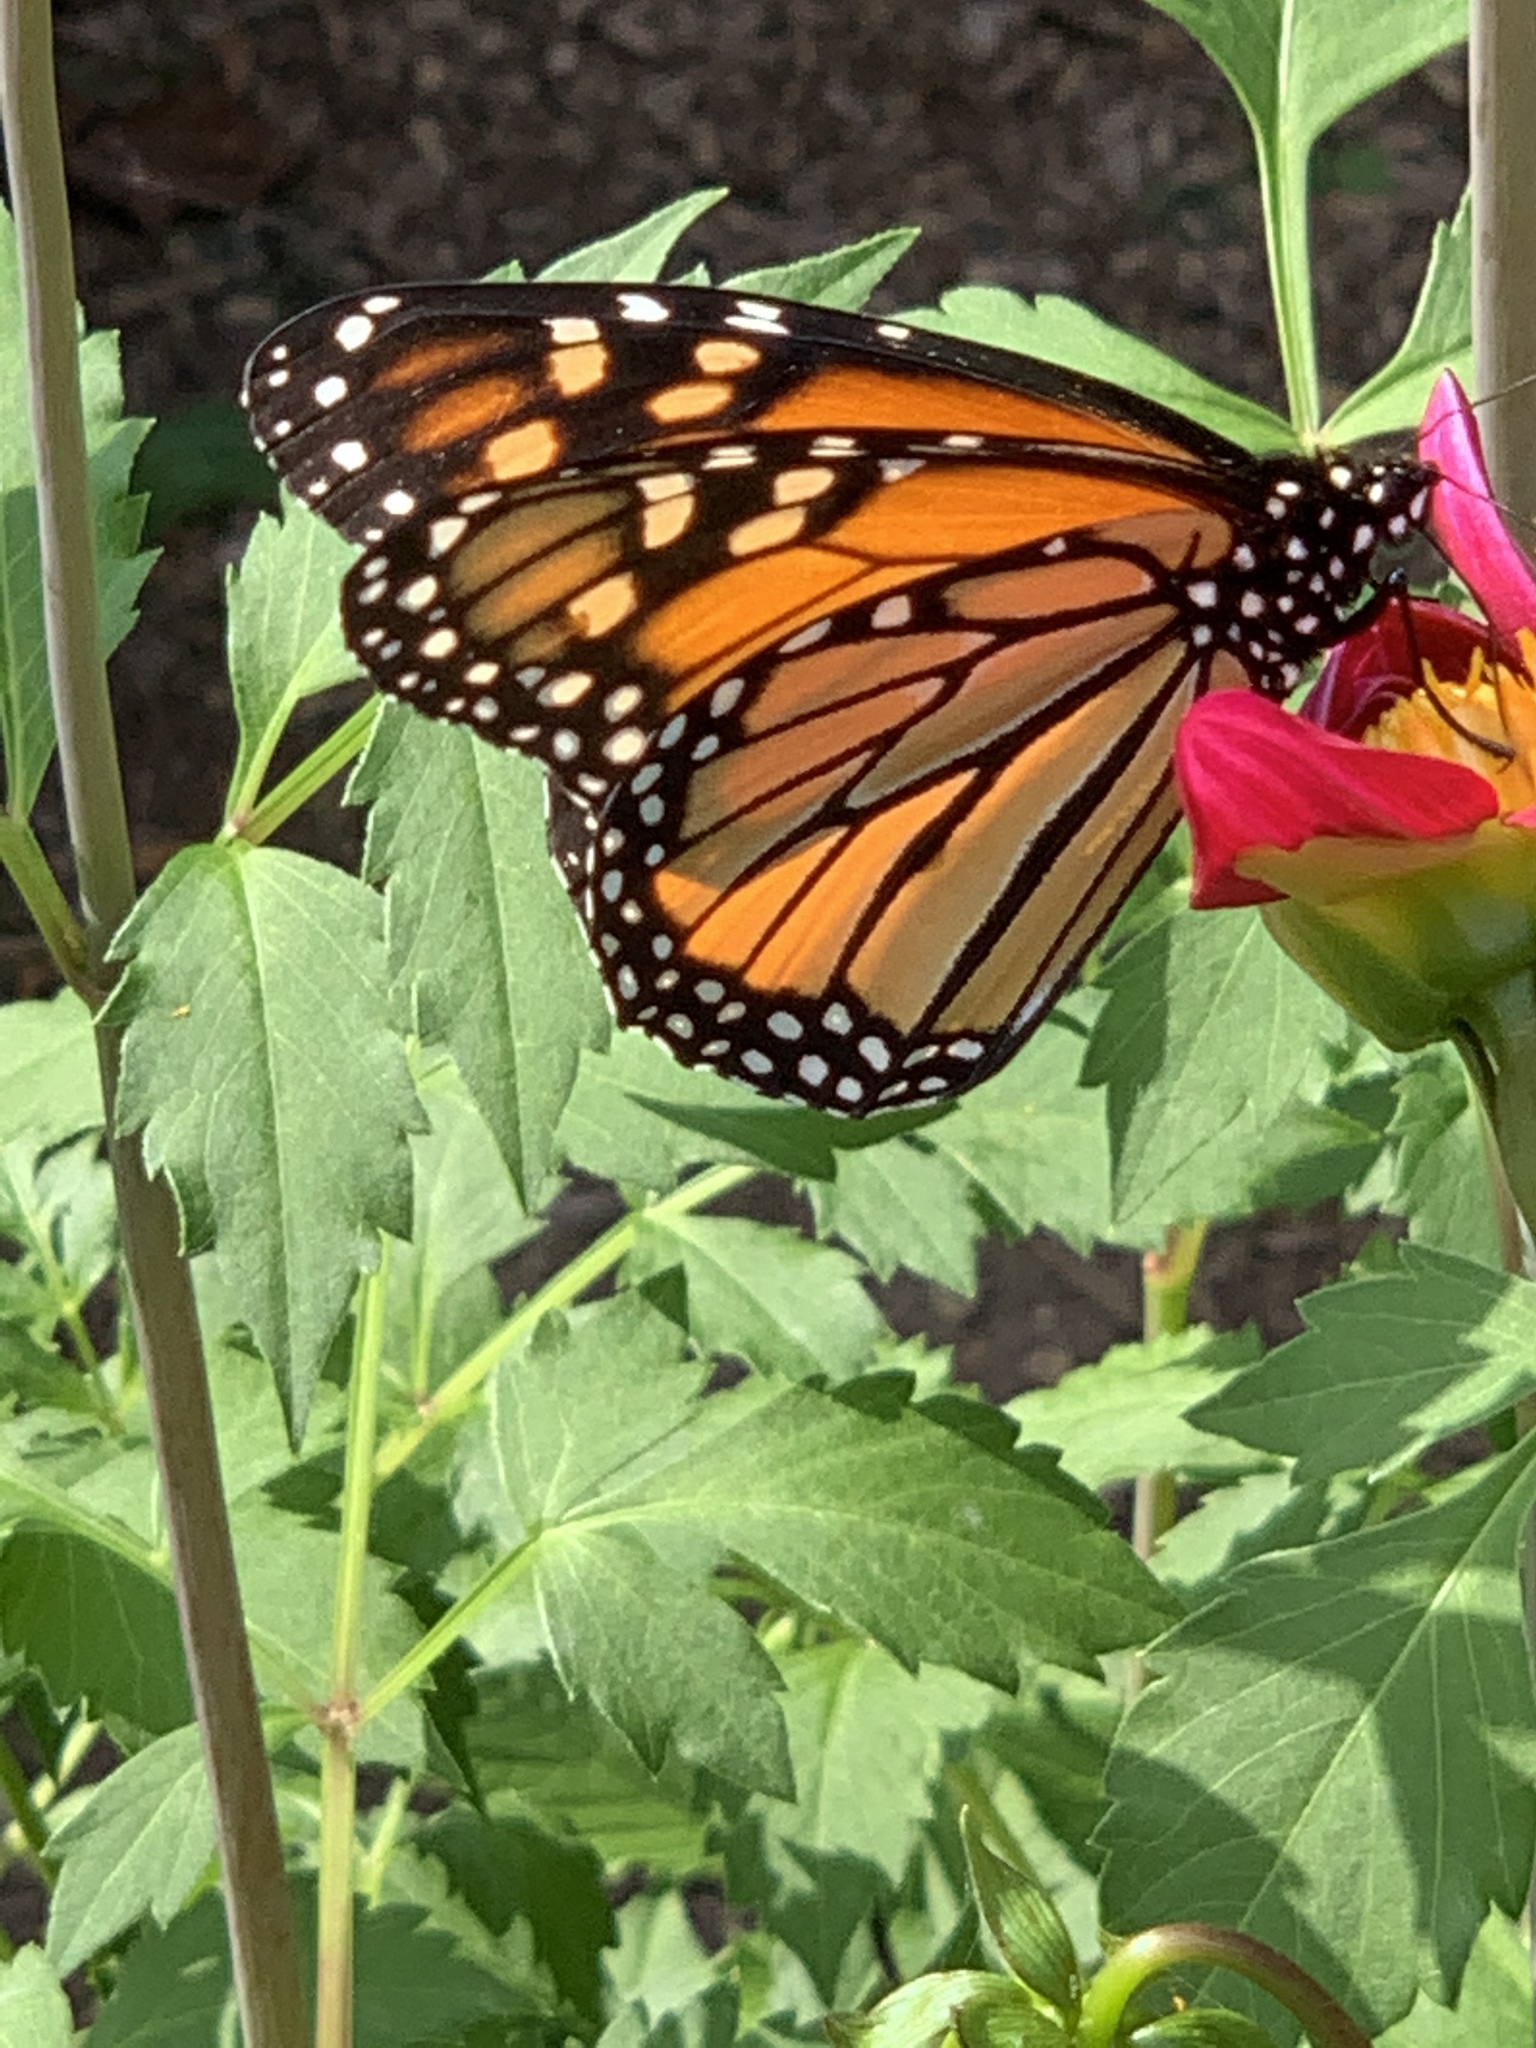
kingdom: Animalia
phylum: Arthropoda
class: Insecta
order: Lepidoptera
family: Nymphalidae
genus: Danaus
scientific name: Danaus plexippus
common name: Monarch
